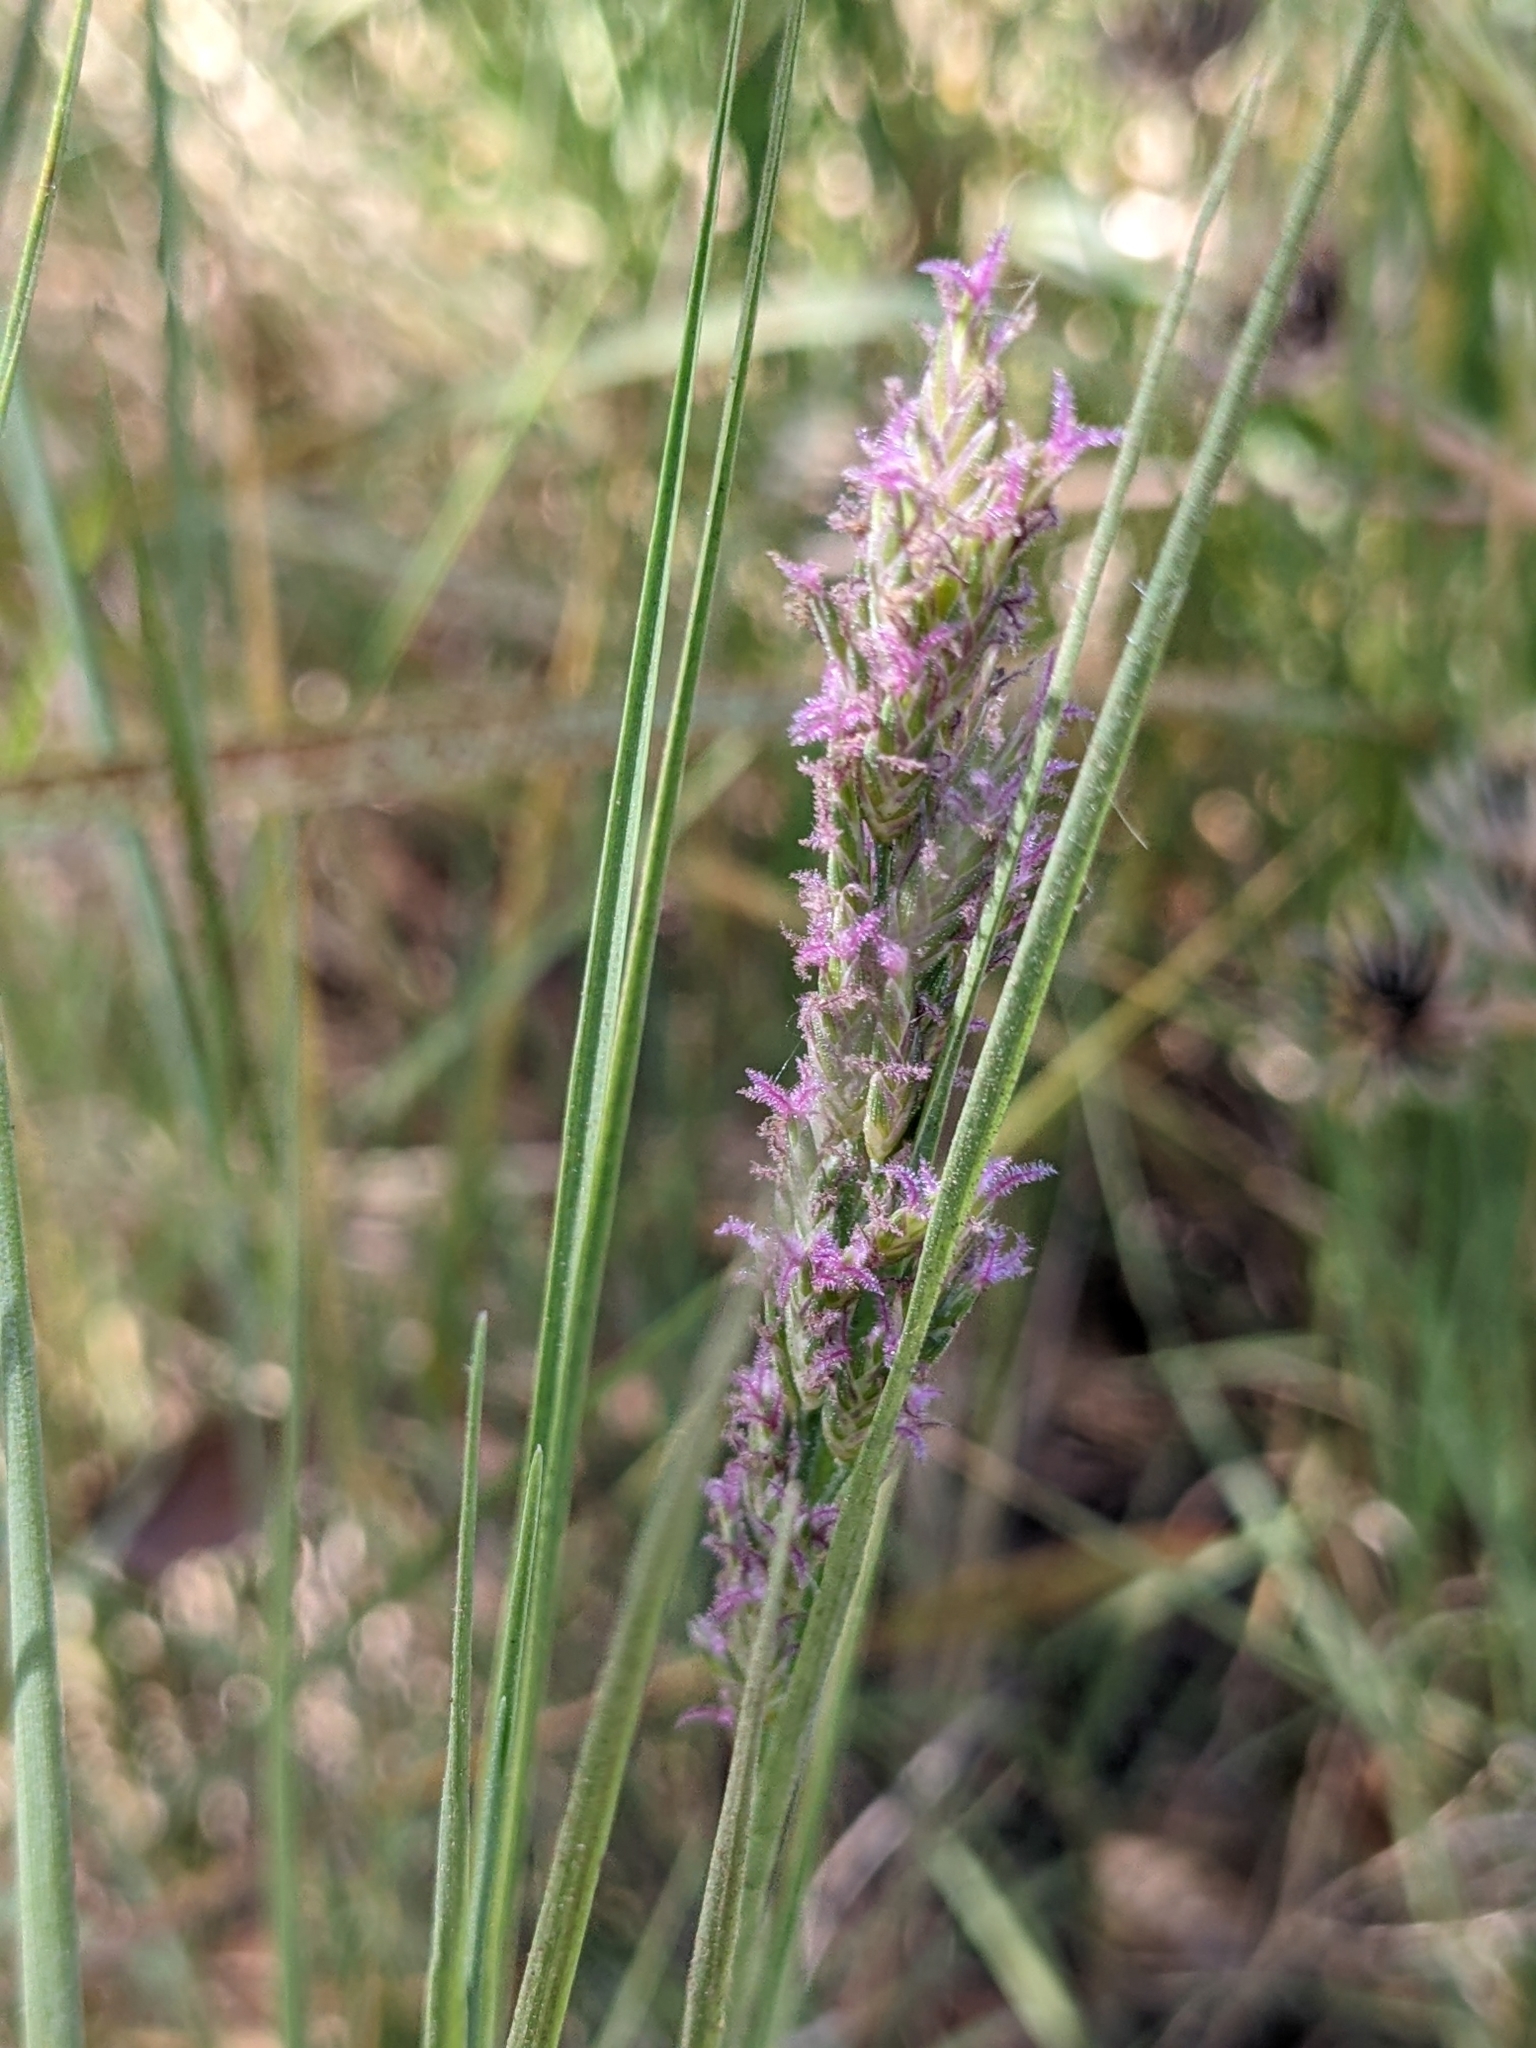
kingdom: Plantae
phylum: Tracheophyta
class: Liliopsida
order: Poales
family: Poaceae
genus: Distichlis
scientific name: Distichlis spicata
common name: Saltgrass
